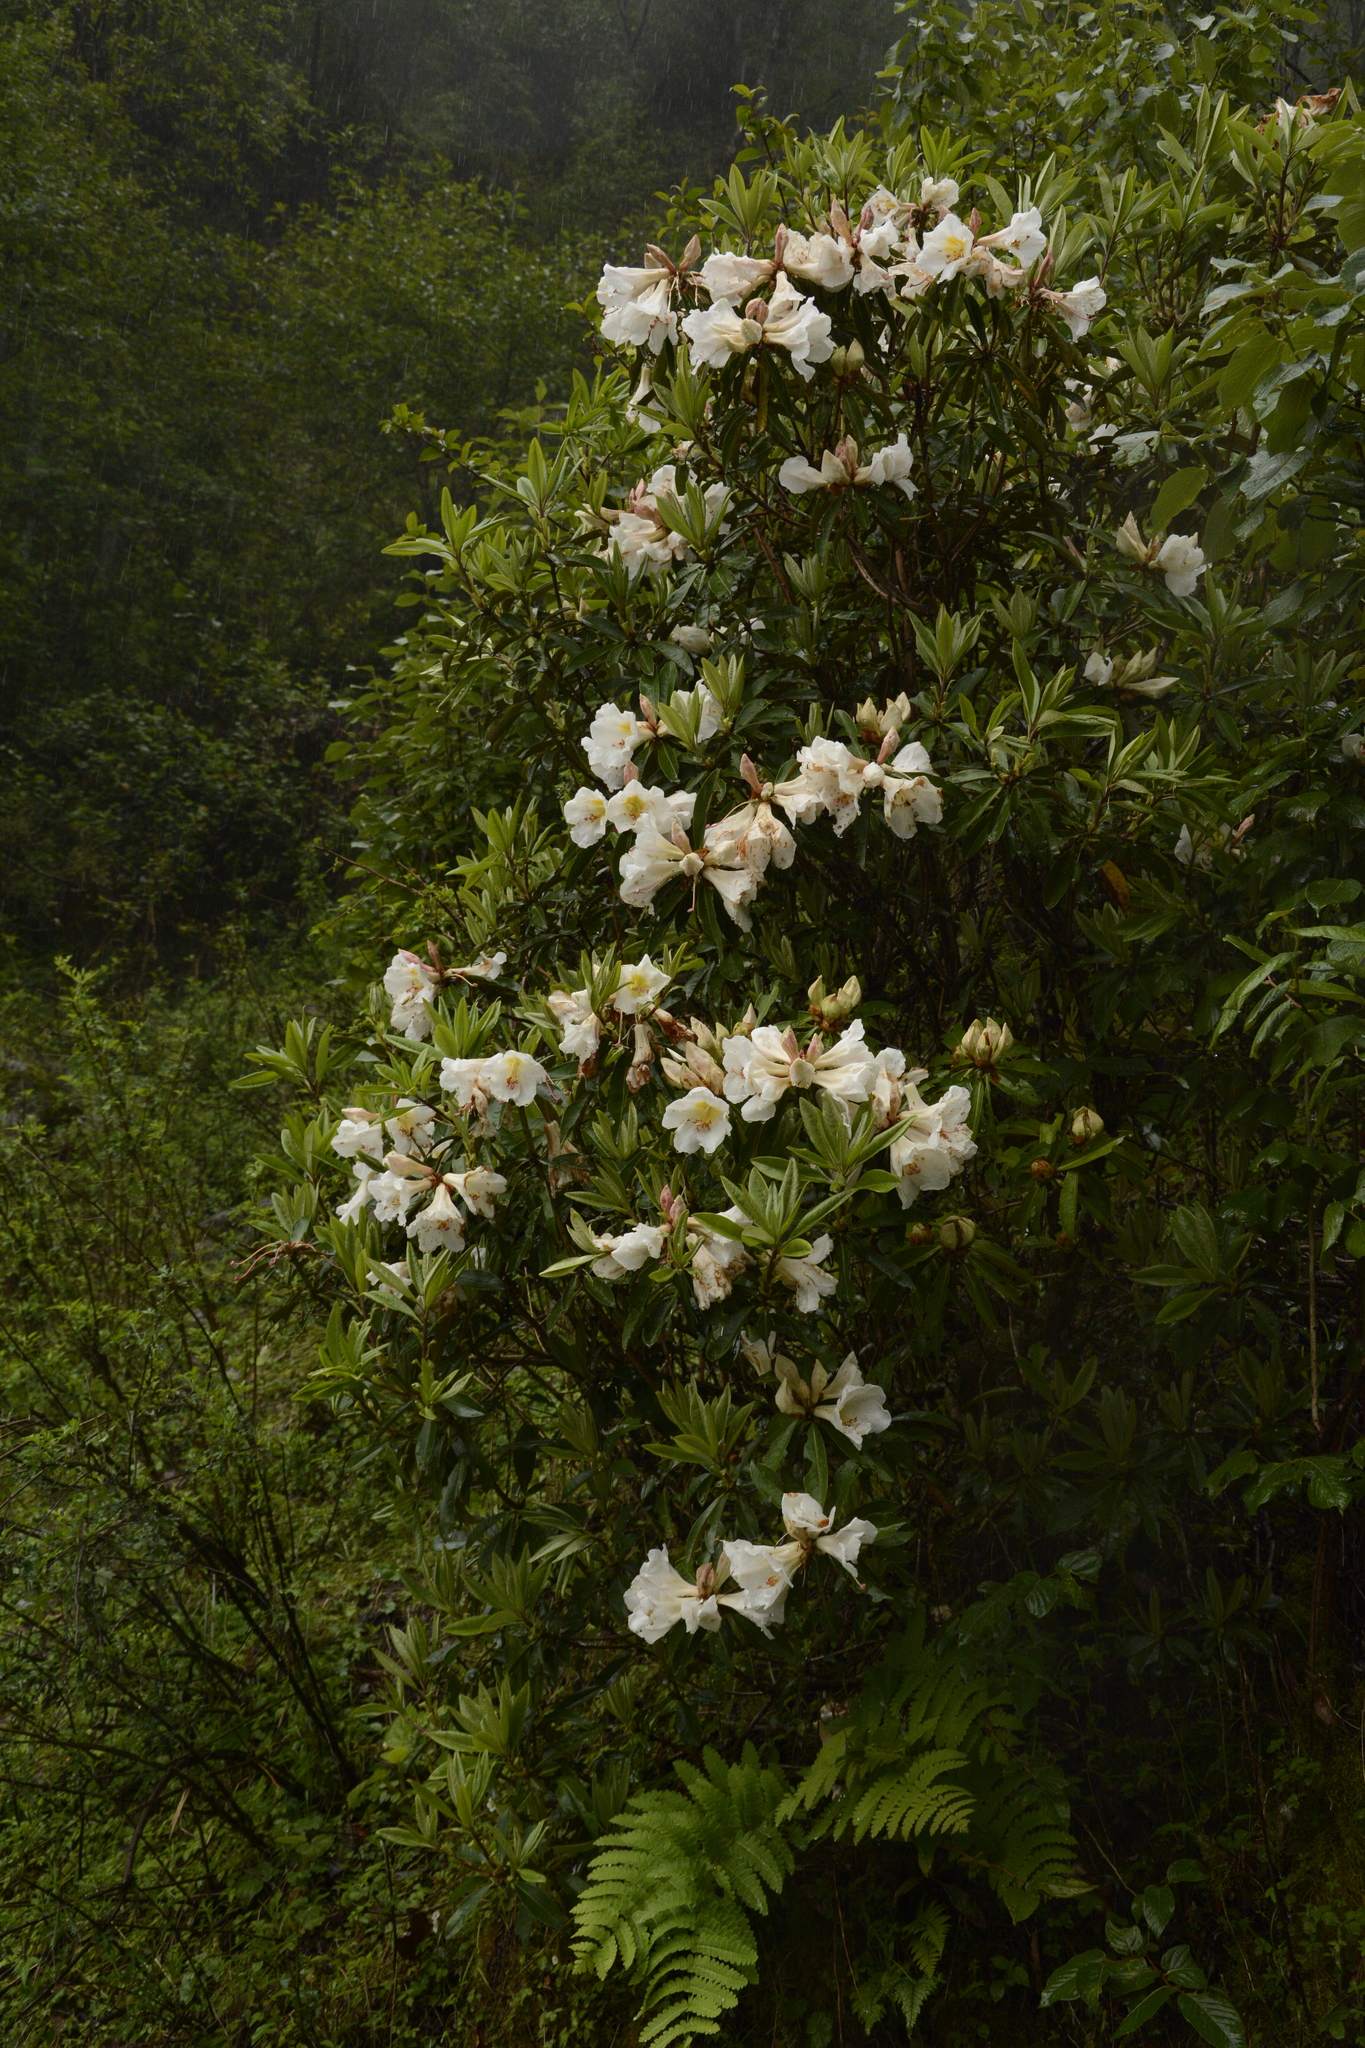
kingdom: Plantae
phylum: Tracheophyta
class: Magnoliopsida
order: Ericales
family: Ericaceae
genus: Rhododendron
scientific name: Rhododendron maddenii
